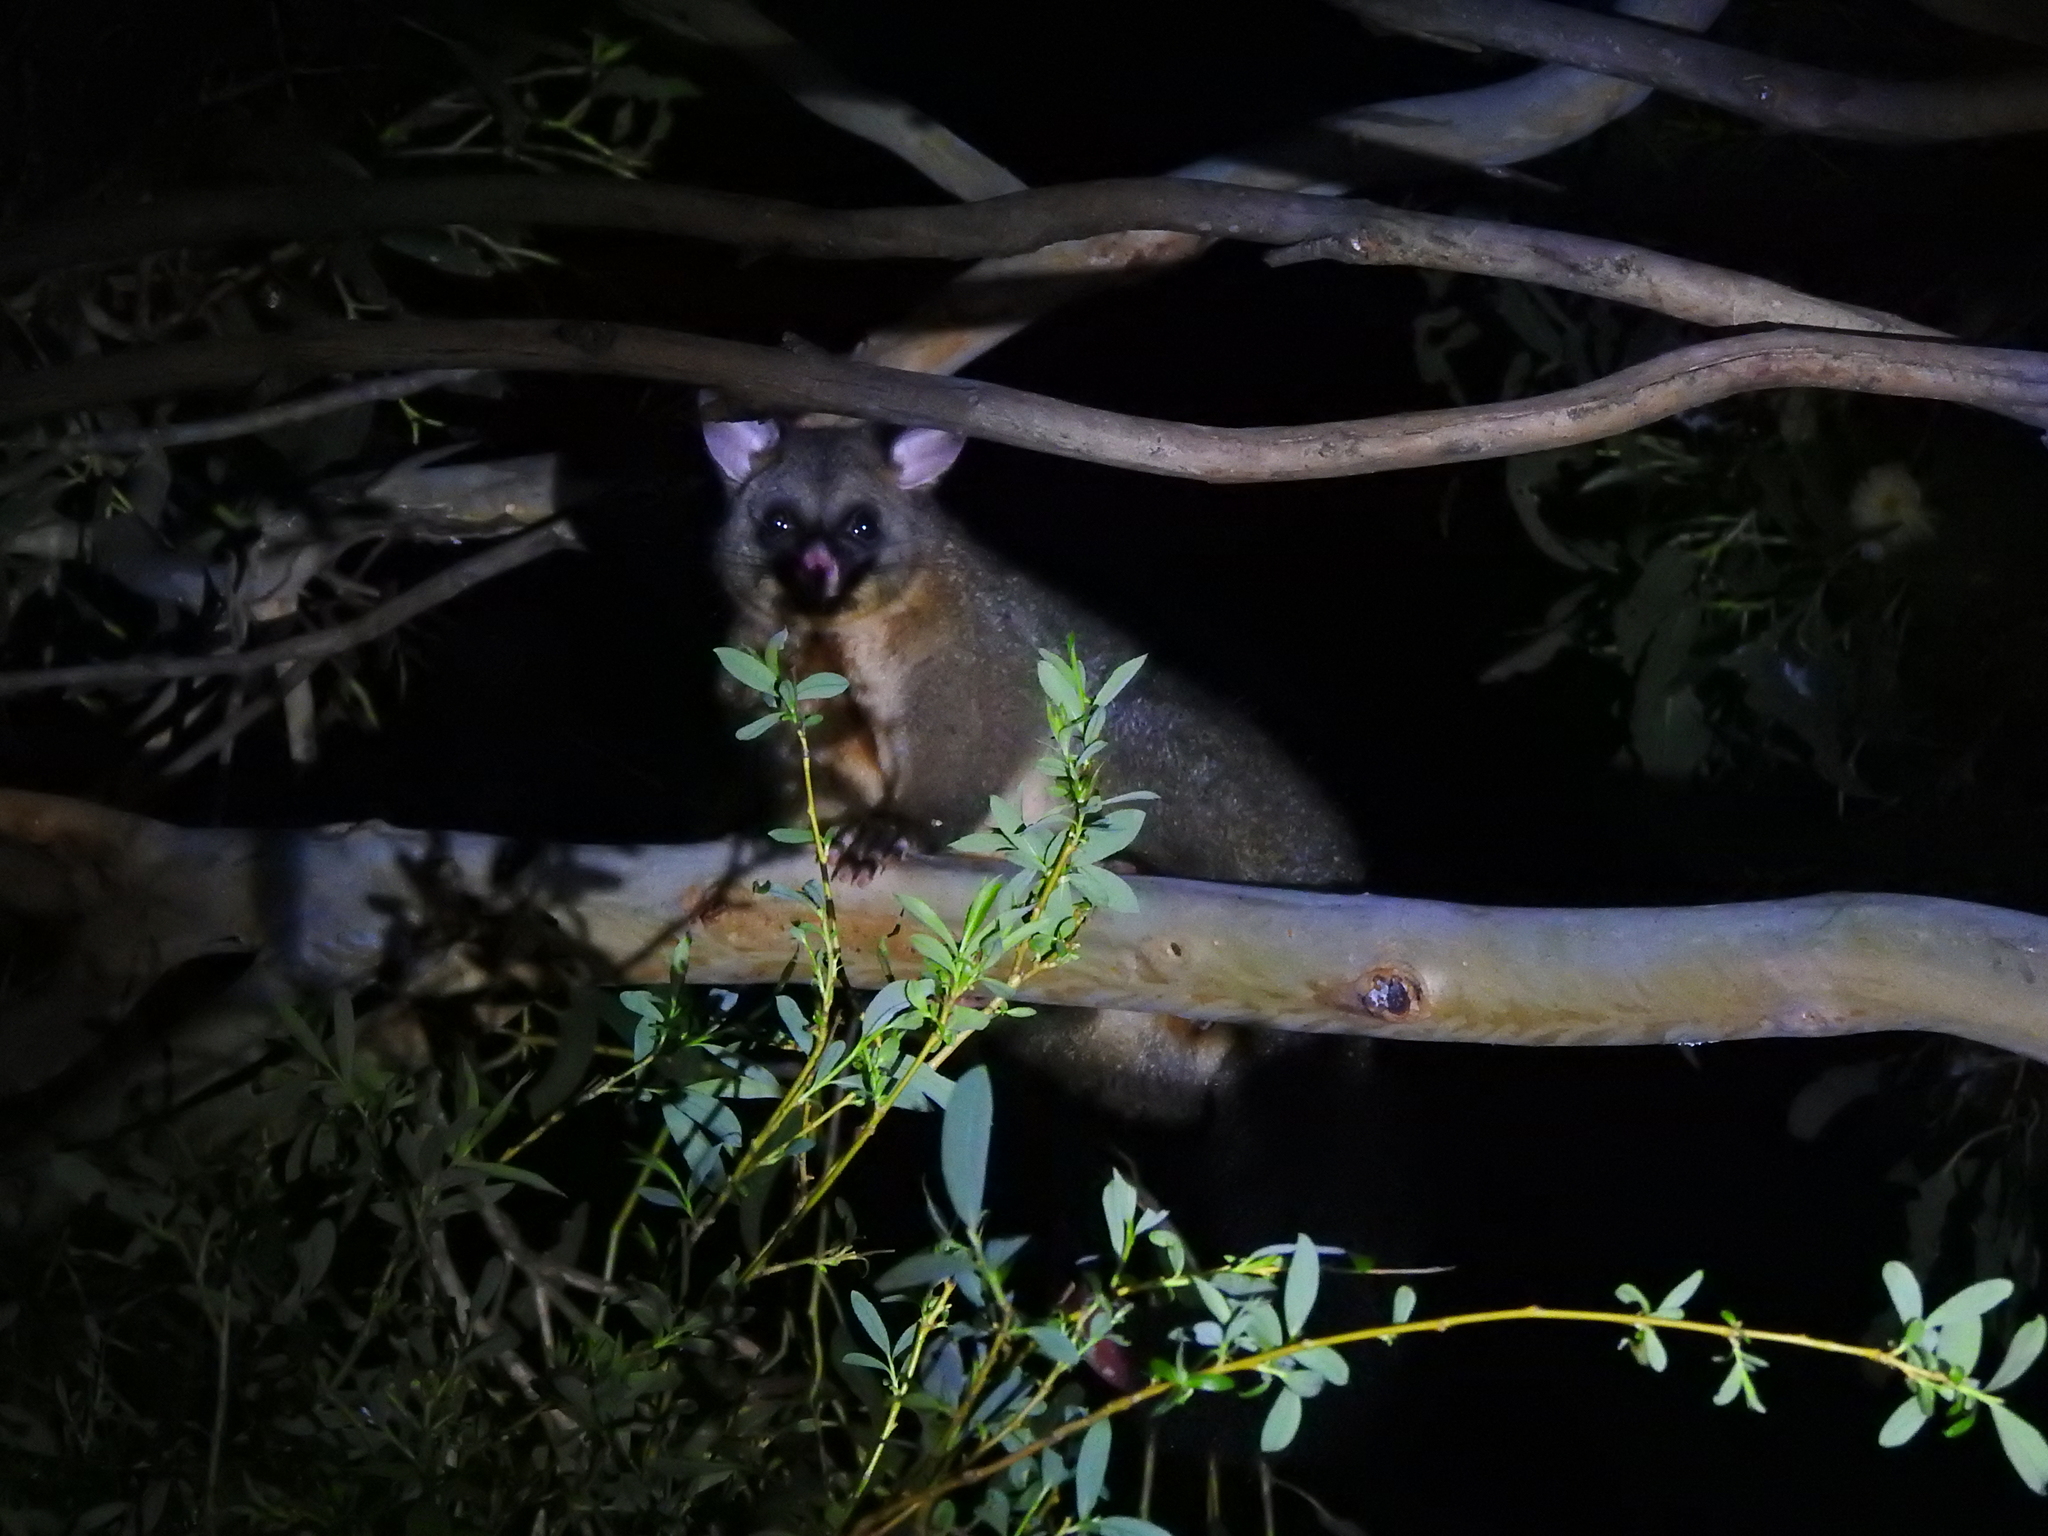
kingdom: Animalia
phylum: Chordata
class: Mammalia
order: Diprotodontia
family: Phalangeridae
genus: Trichosurus
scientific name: Trichosurus vulpecula
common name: Common brushtail
